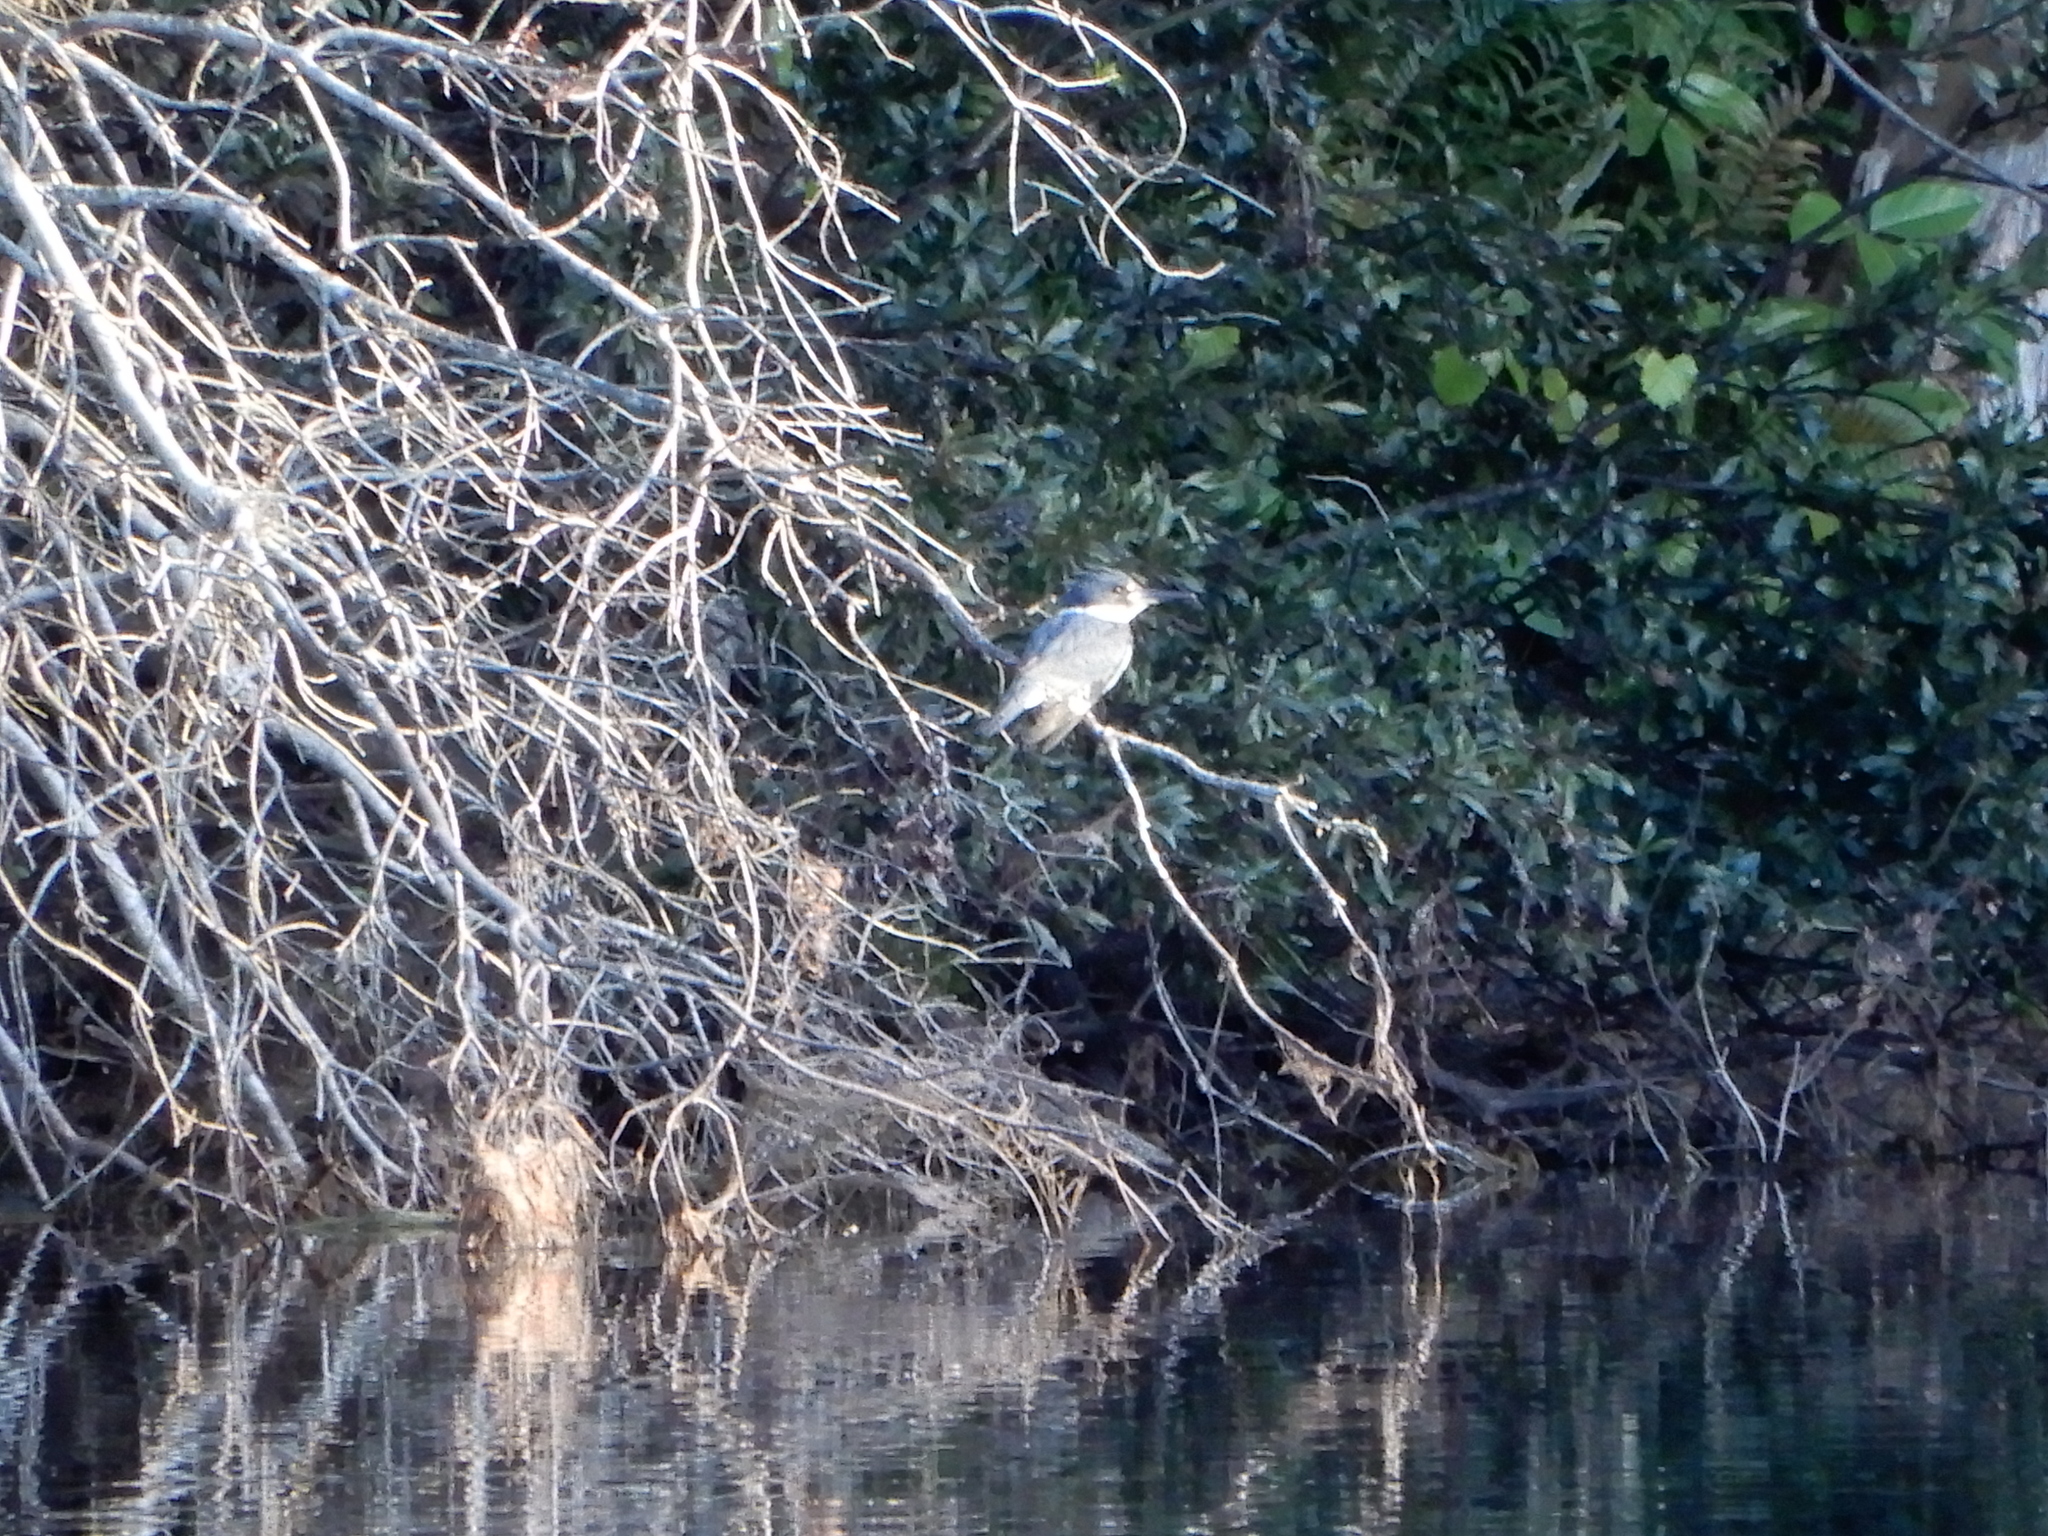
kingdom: Animalia
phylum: Chordata
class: Aves
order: Coraciiformes
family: Alcedinidae
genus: Megaceryle
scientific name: Megaceryle alcyon
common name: Belted kingfisher
